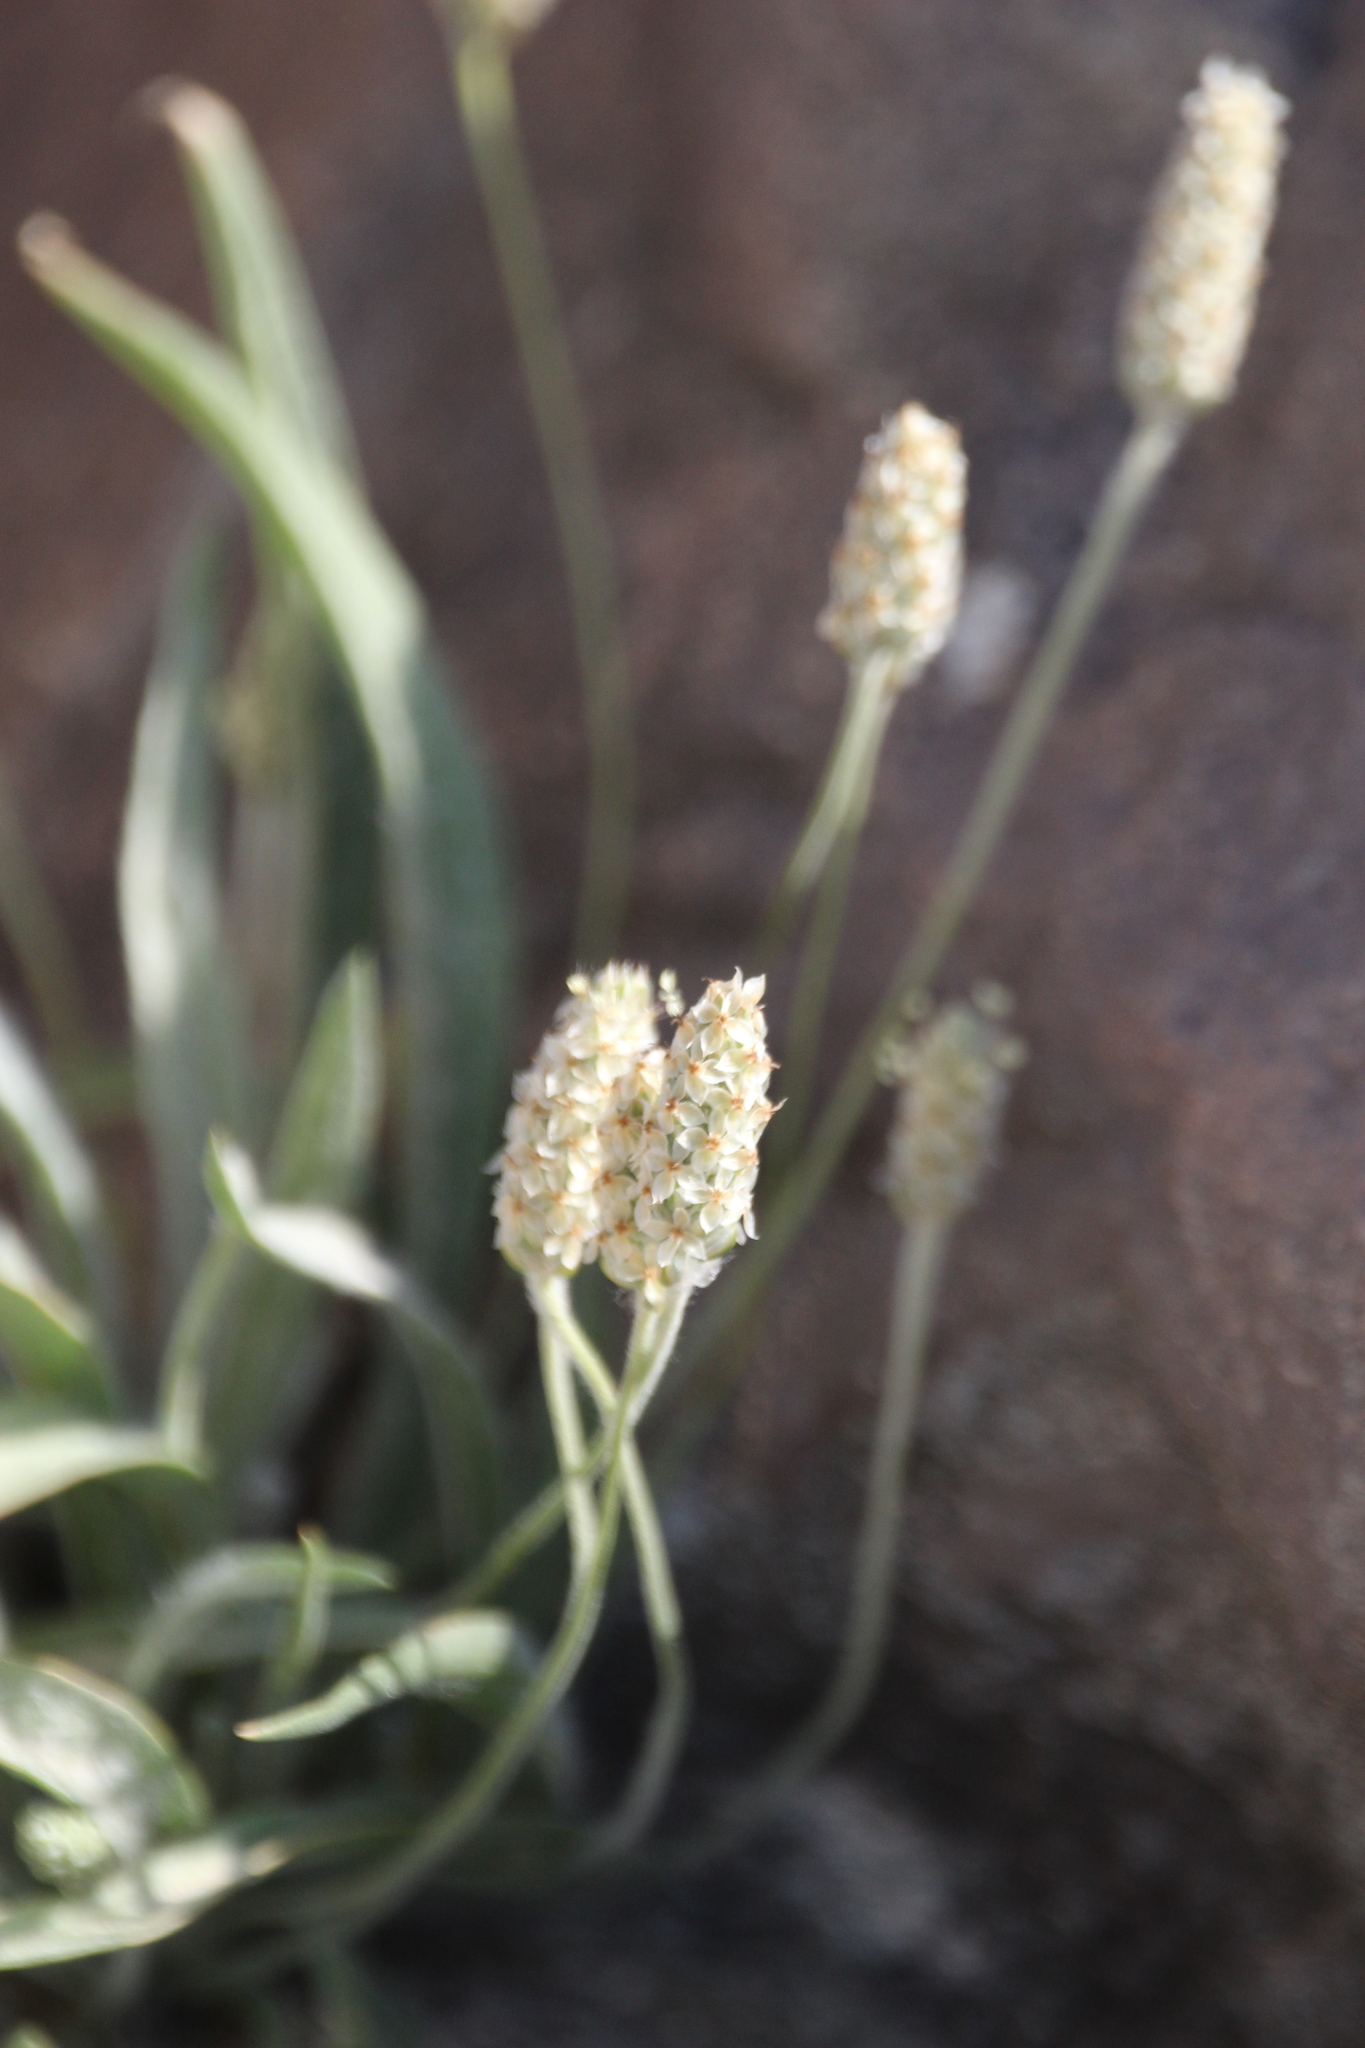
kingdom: Plantae
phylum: Tracheophyta
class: Magnoliopsida
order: Lamiales
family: Plantaginaceae
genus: Plantago
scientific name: Plantago ovata
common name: Blond plantain
